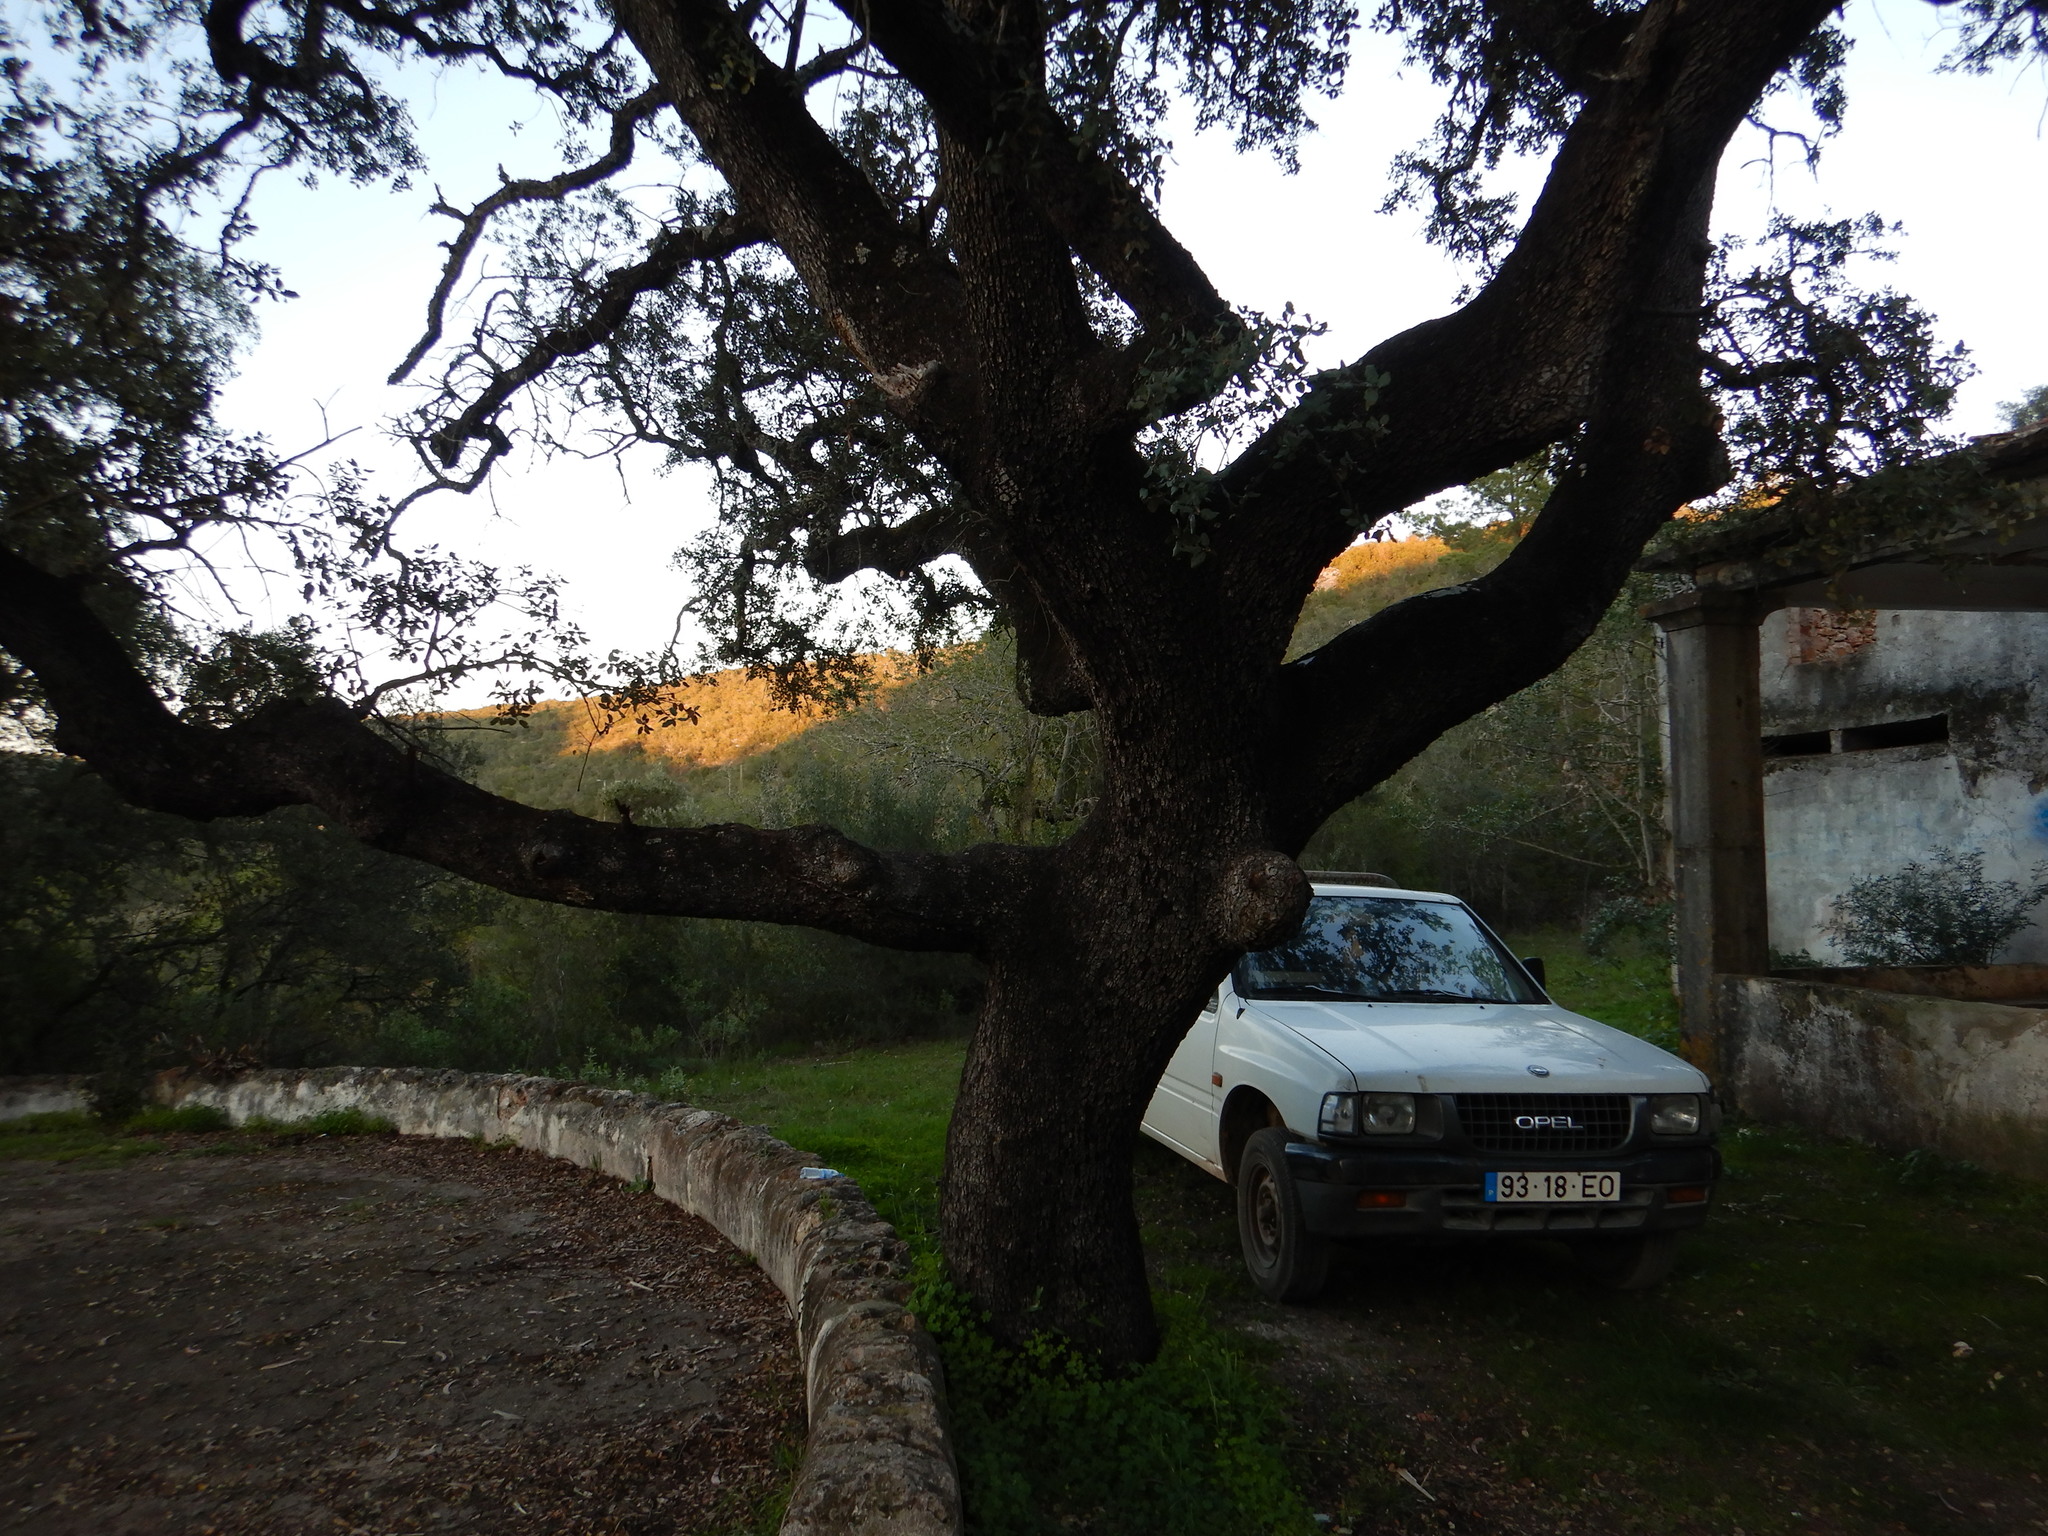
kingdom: Plantae
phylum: Tracheophyta
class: Magnoliopsida
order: Fagales
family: Fagaceae
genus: Quercus
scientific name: Quercus rotundifolia
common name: Holm oak
